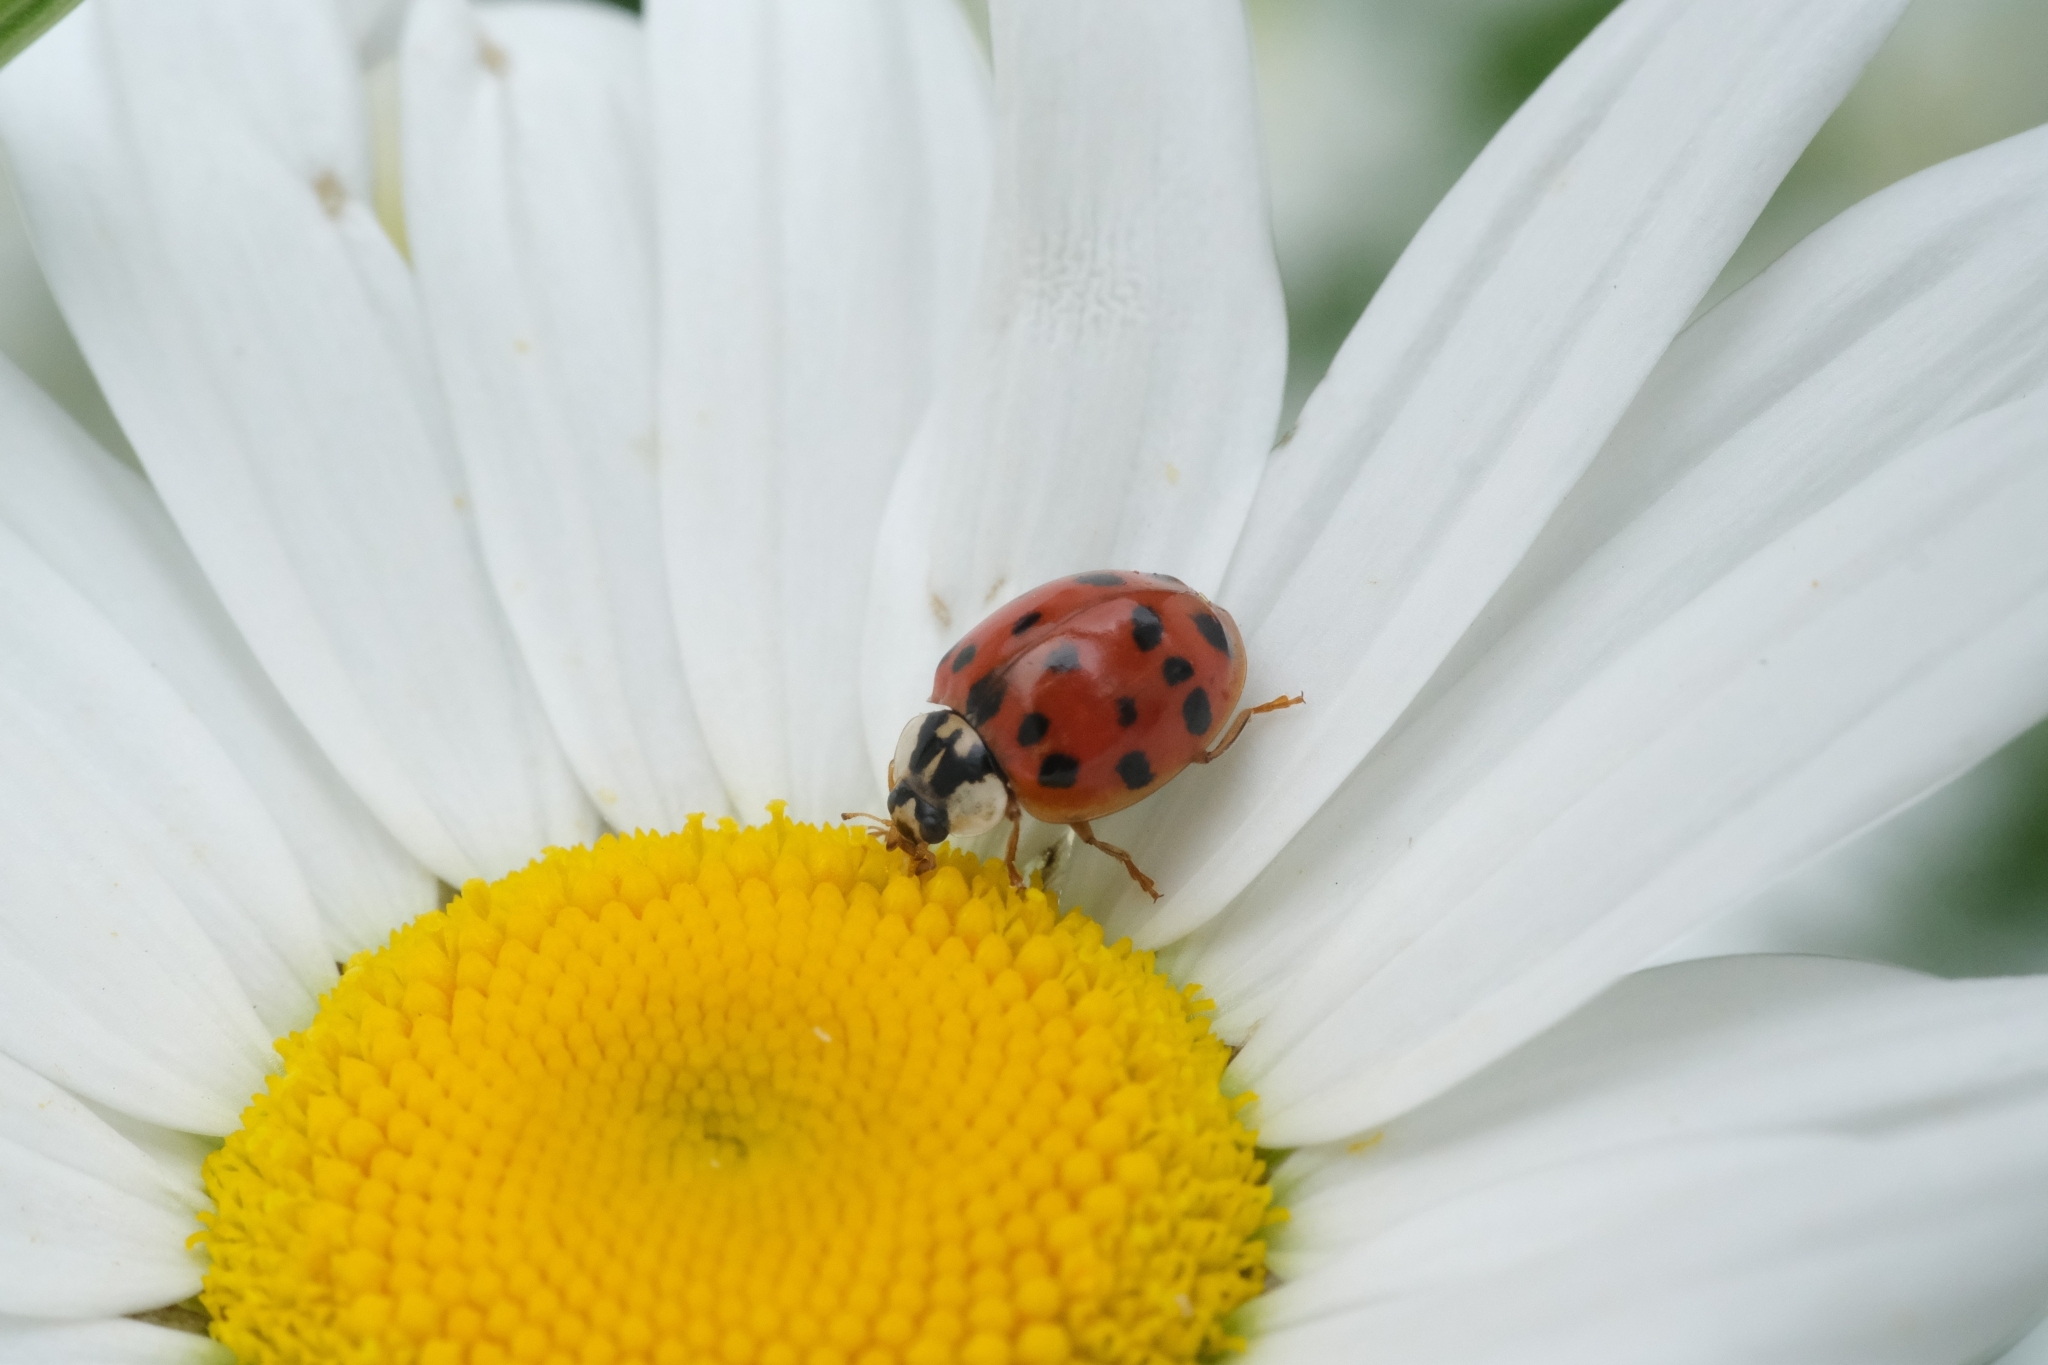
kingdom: Animalia
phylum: Arthropoda
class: Insecta
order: Coleoptera
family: Coccinellidae
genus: Harmonia
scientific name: Harmonia axyridis
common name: Harlequin ladybird
